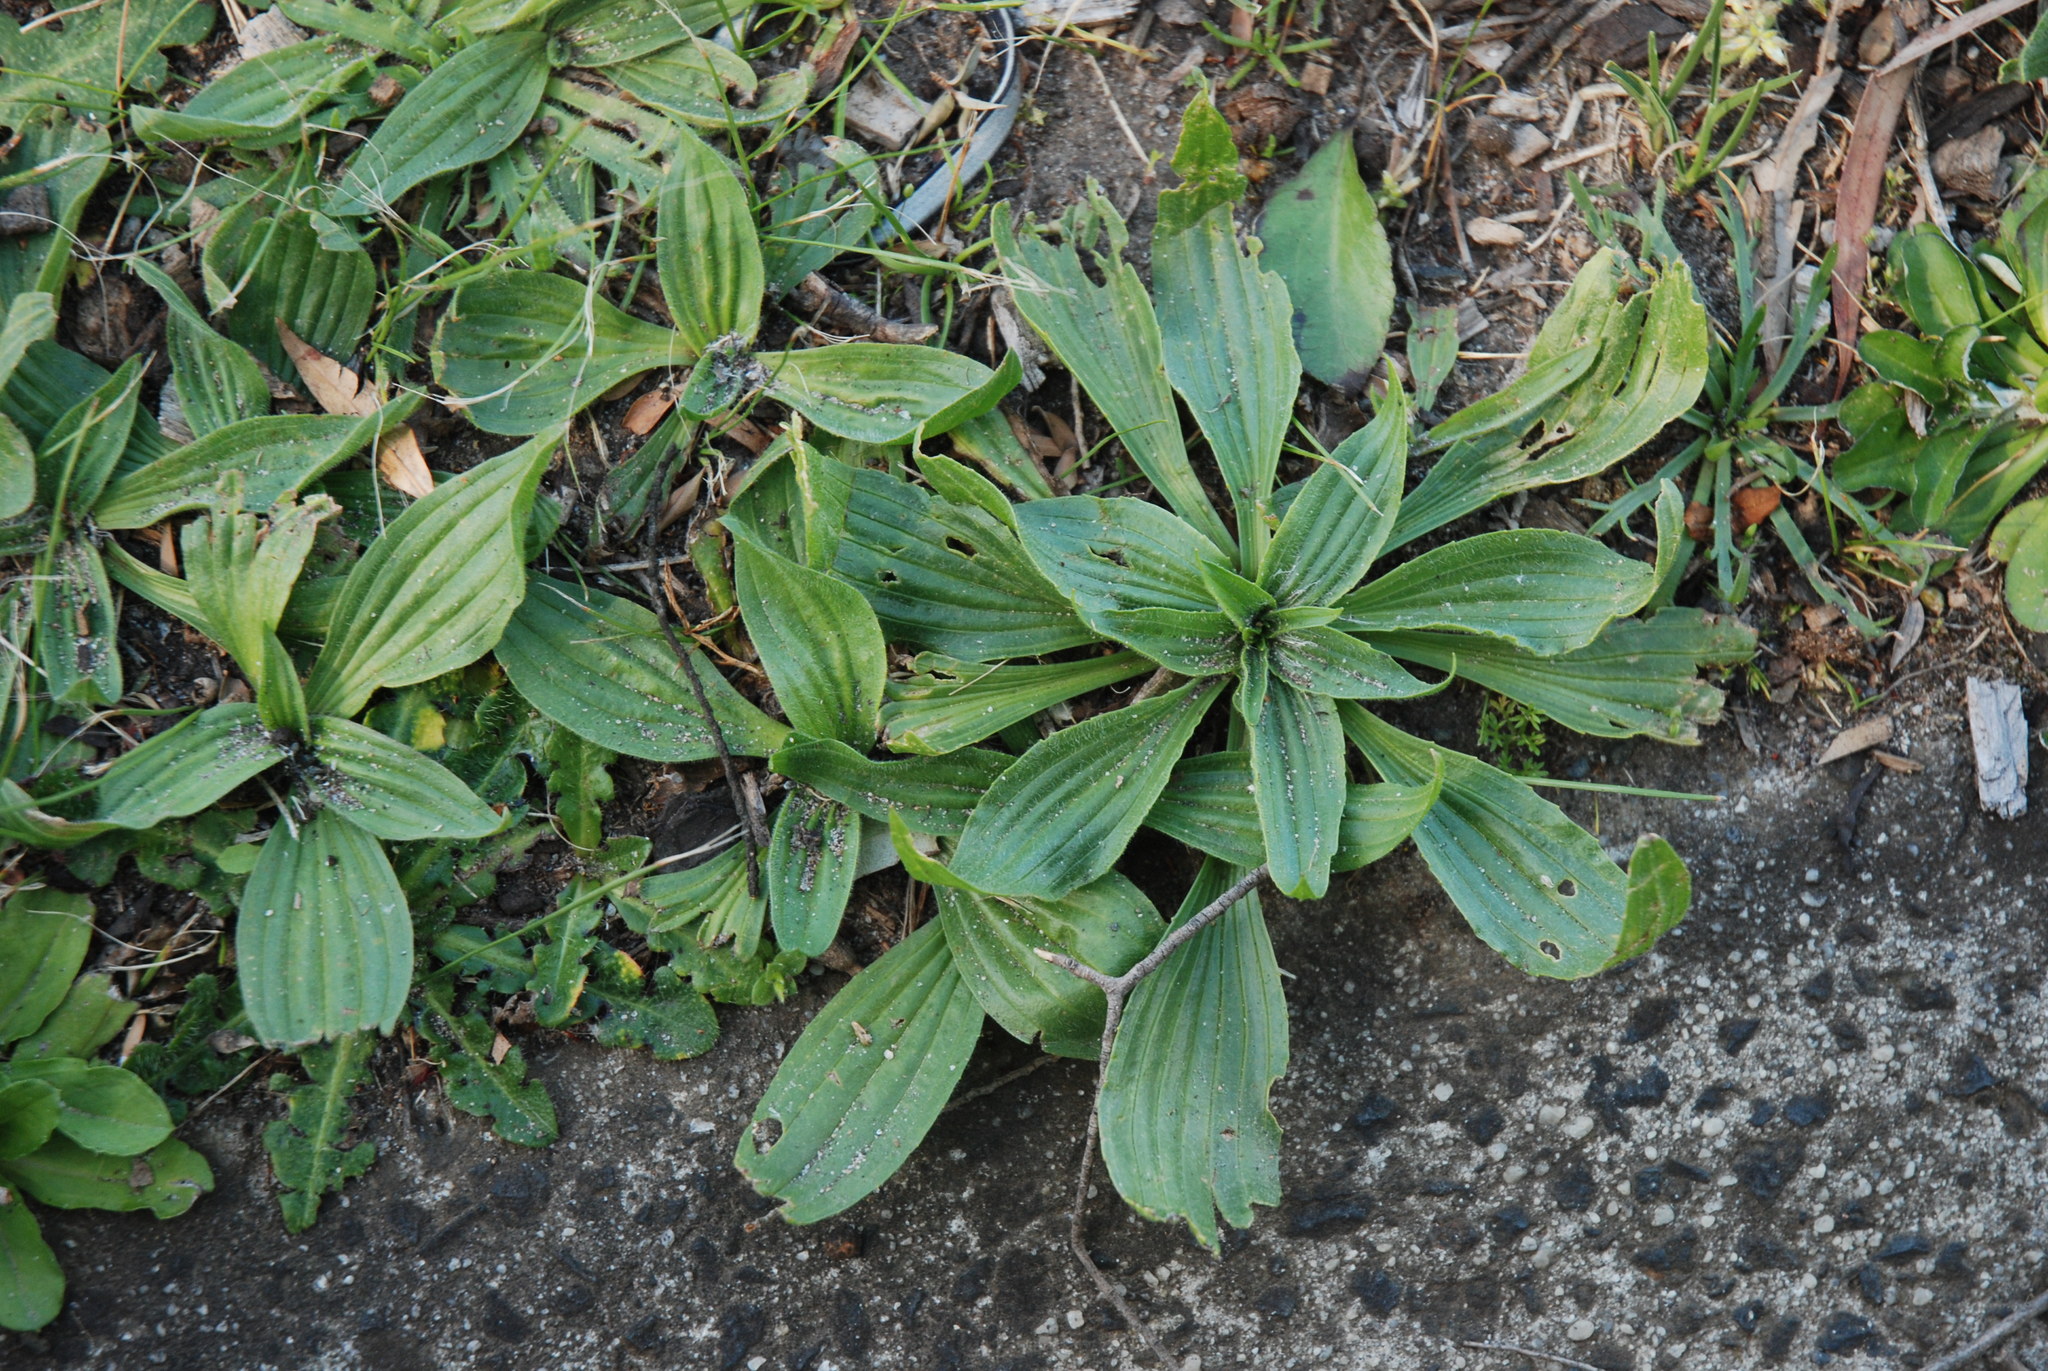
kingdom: Plantae
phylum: Tracheophyta
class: Magnoliopsida
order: Lamiales
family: Plantaginaceae
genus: Plantago
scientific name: Plantago lanceolata
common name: Ribwort plantain
